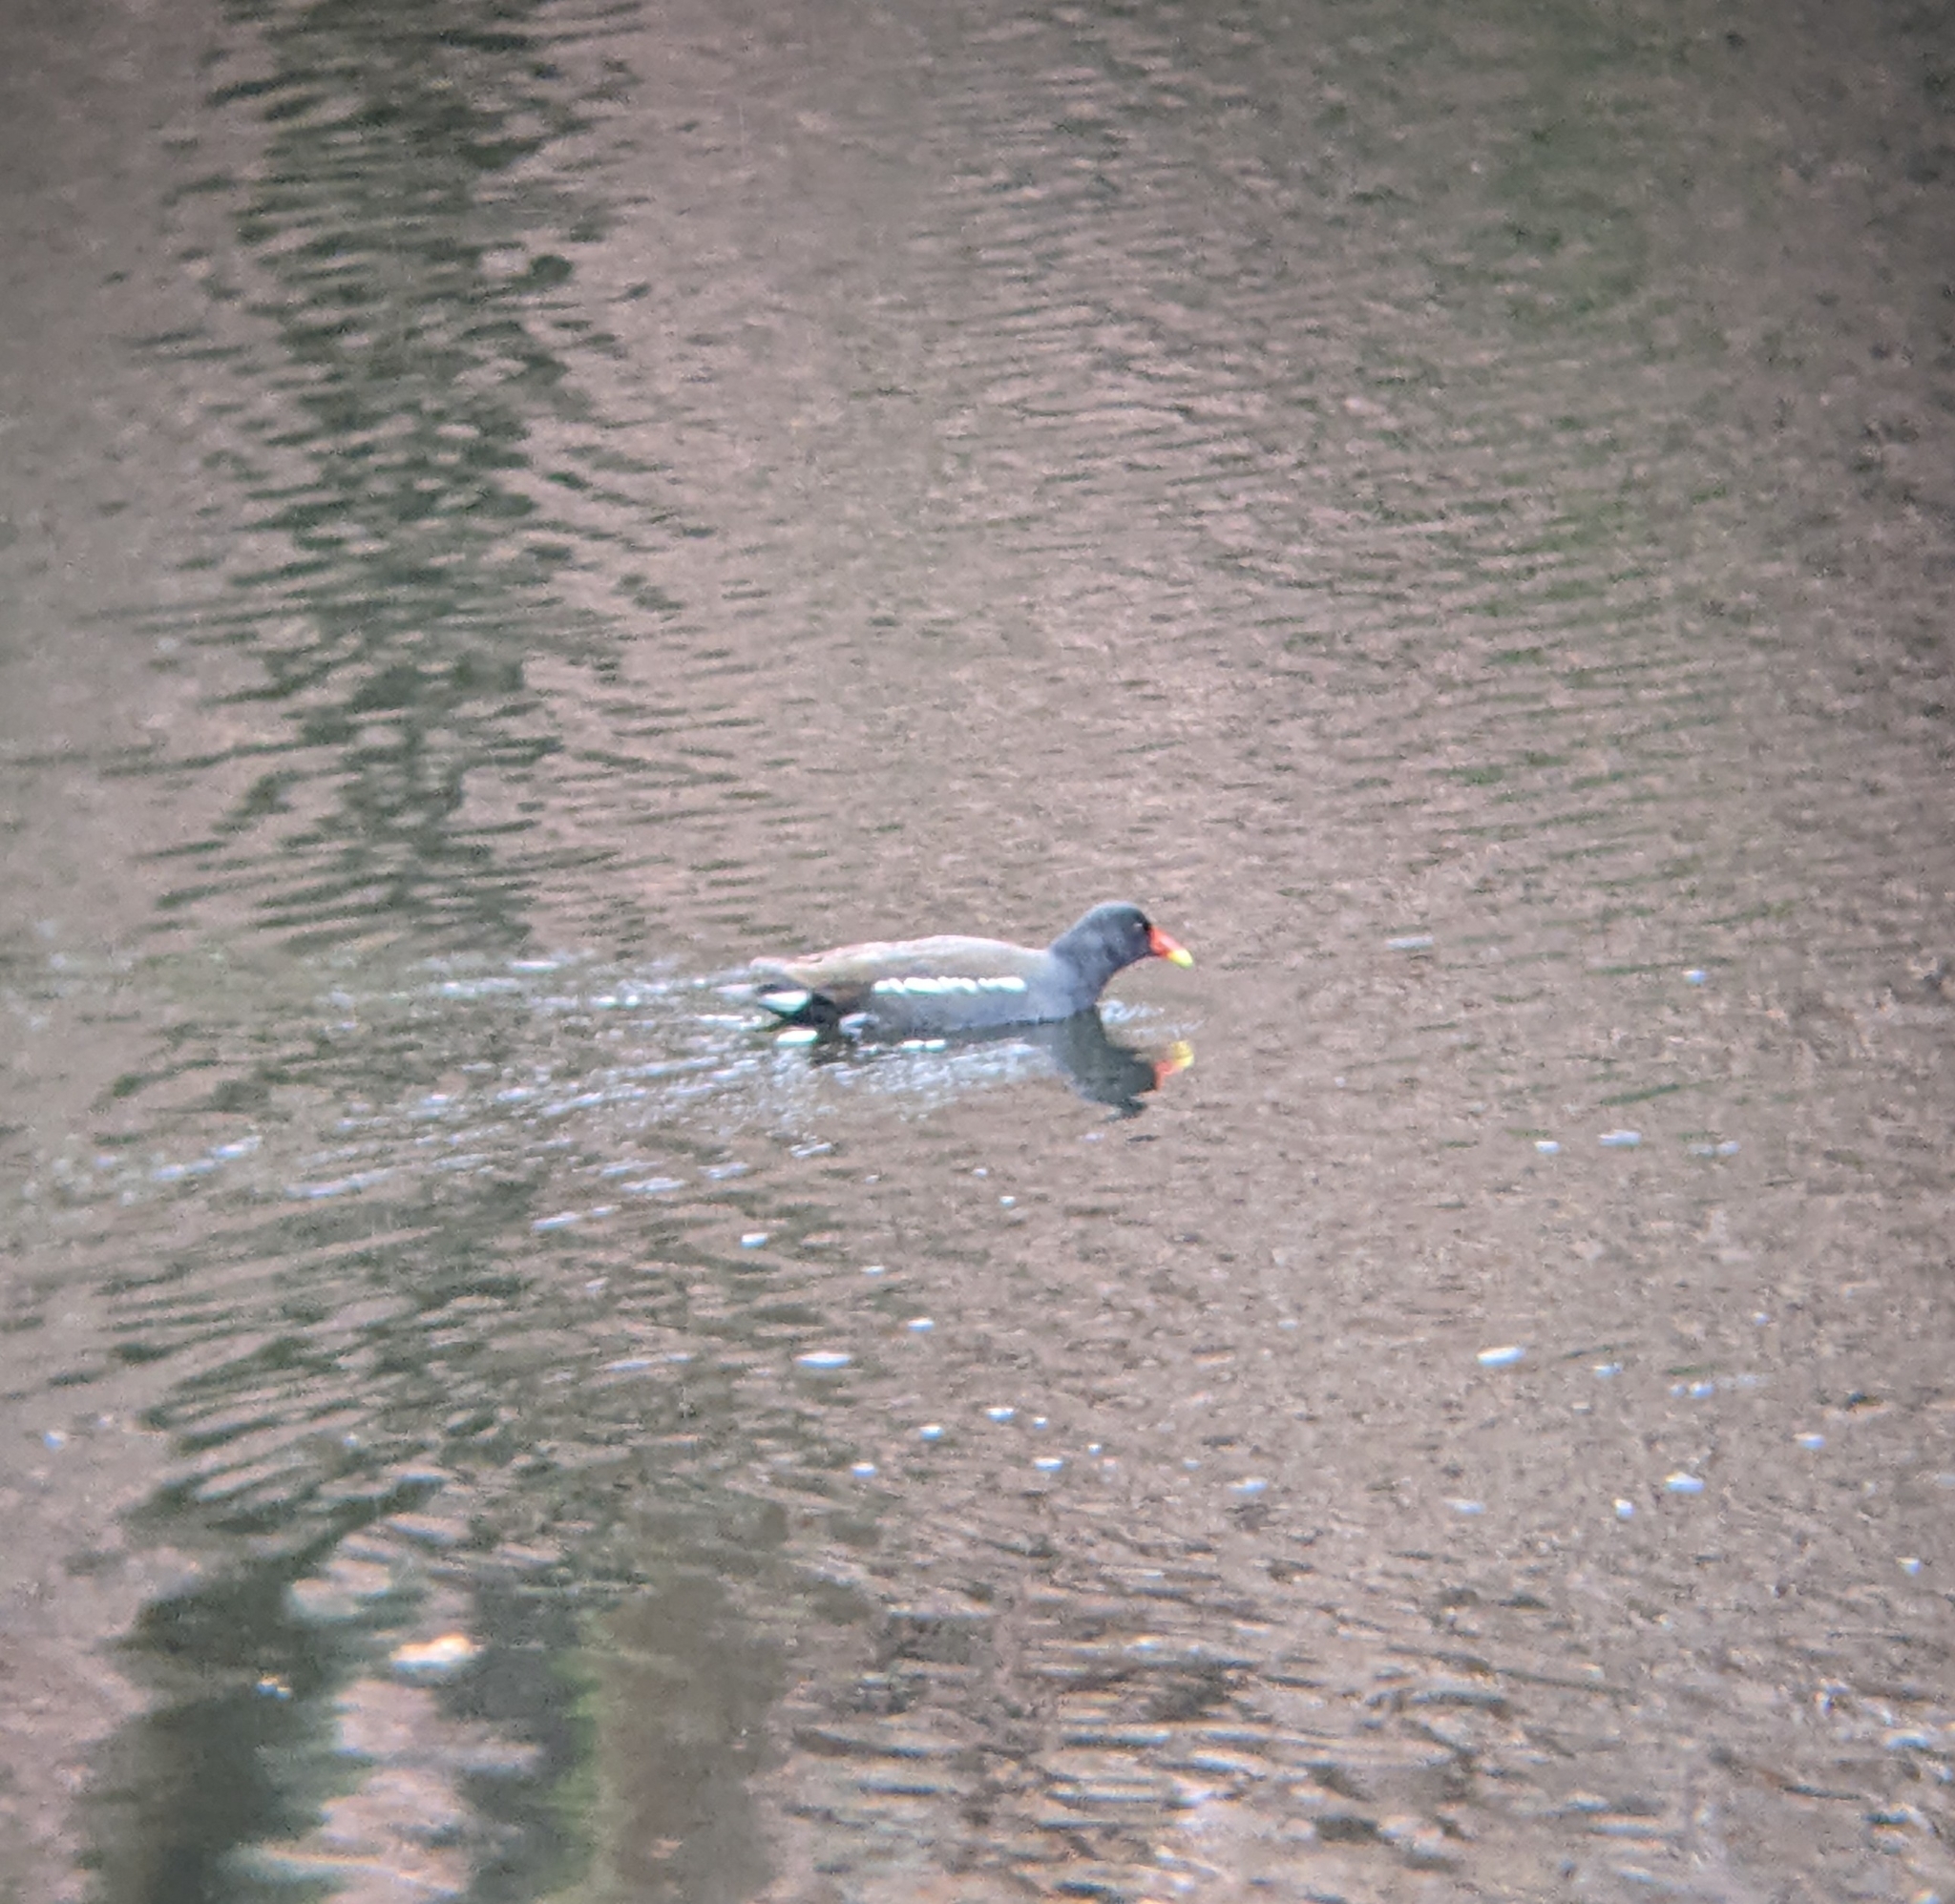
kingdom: Animalia
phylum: Chordata
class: Aves
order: Gruiformes
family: Rallidae
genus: Gallinula
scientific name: Gallinula chloropus
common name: Common moorhen
